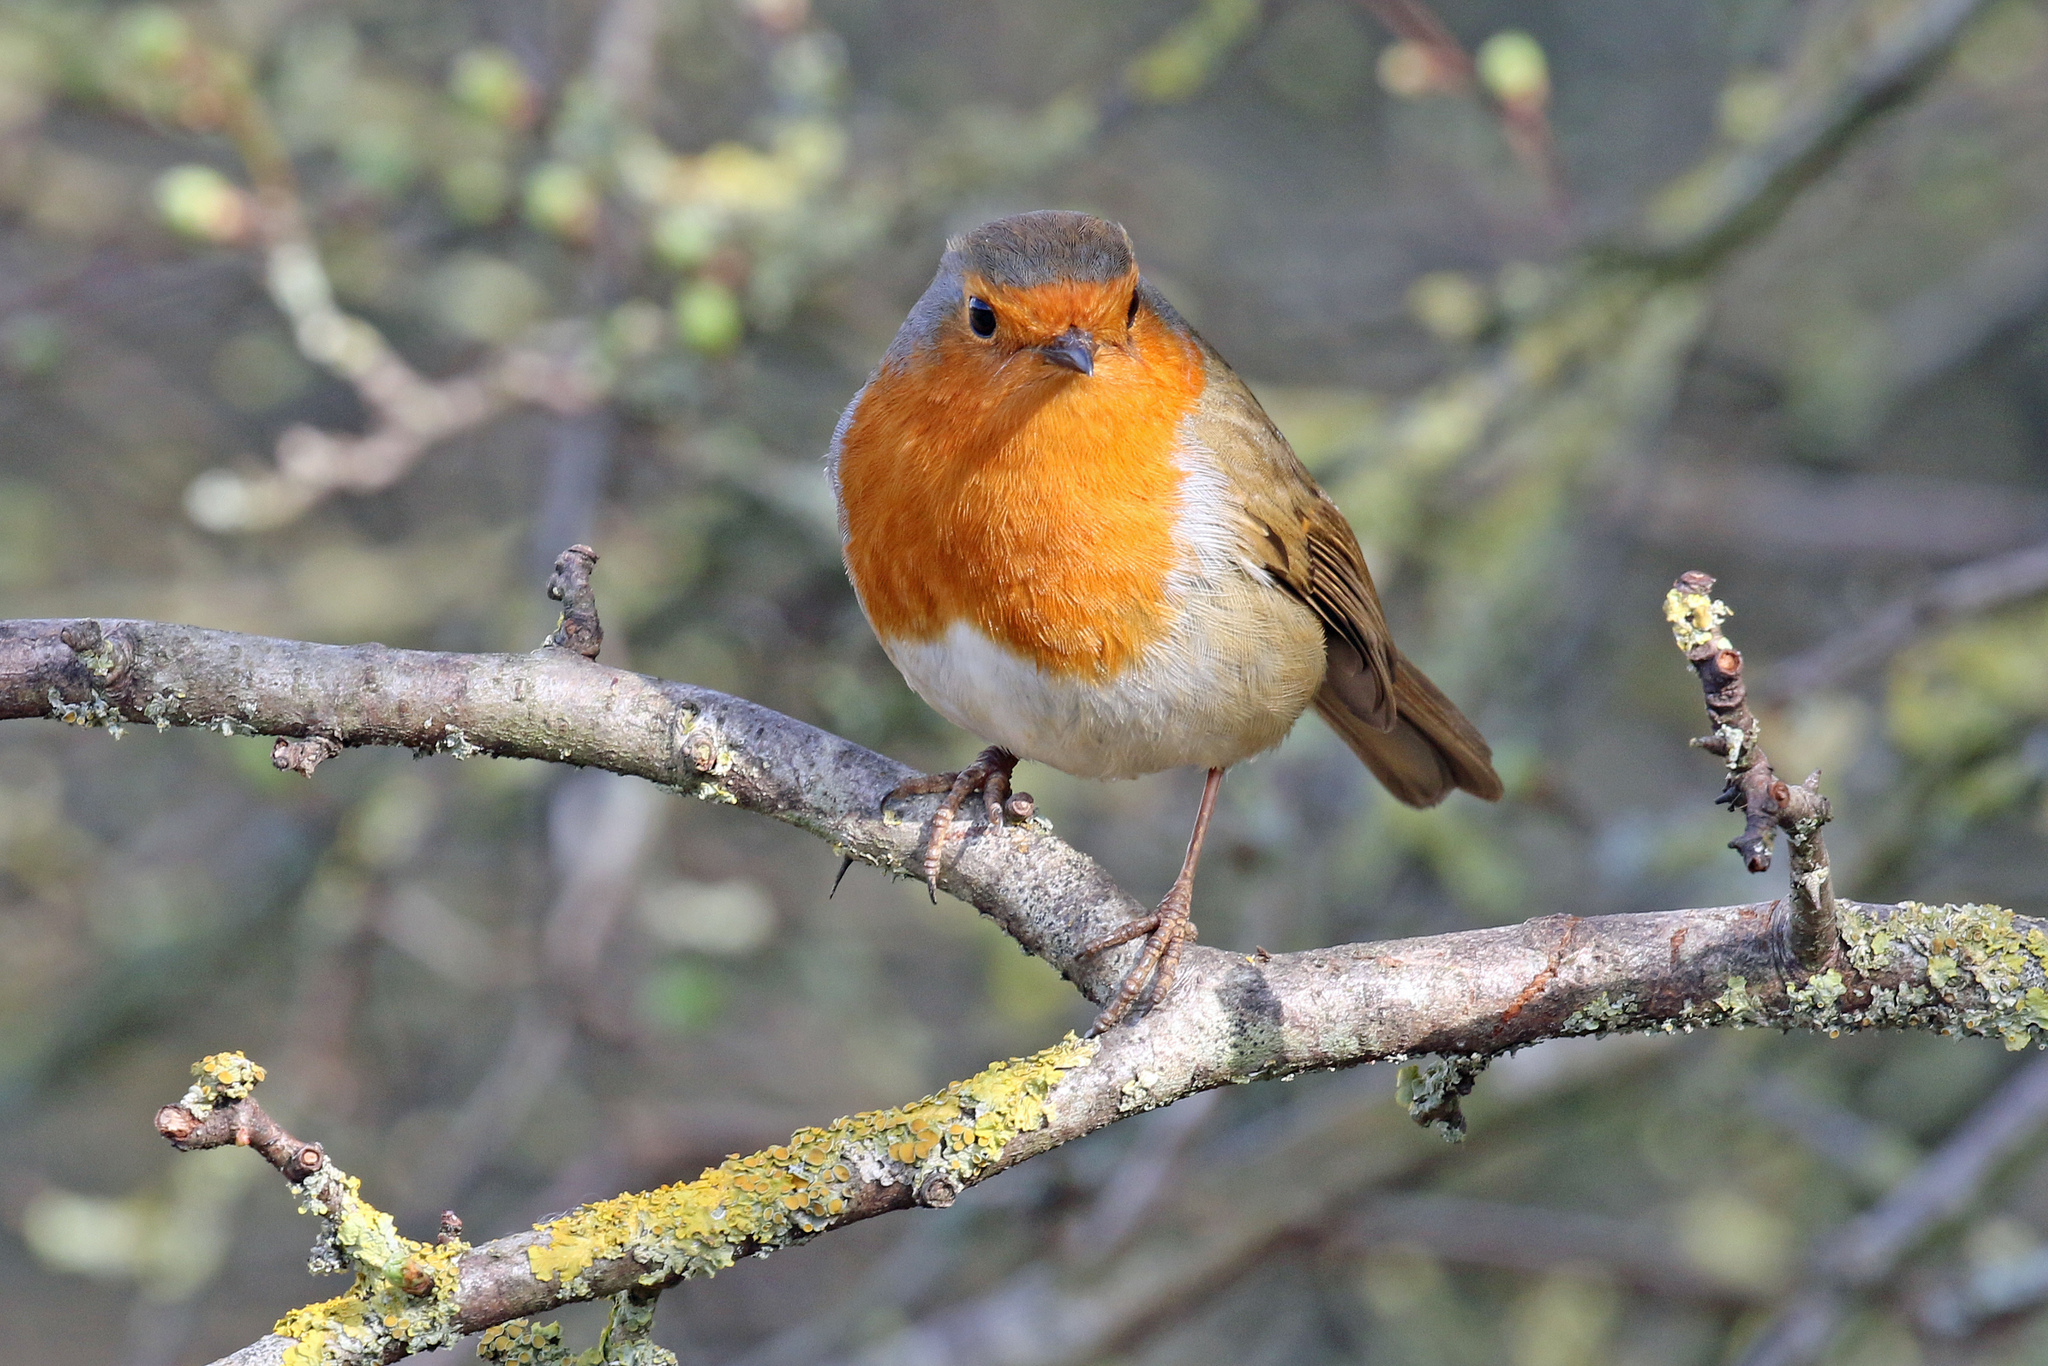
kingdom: Animalia
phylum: Chordata
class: Aves
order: Passeriformes
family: Muscicapidae
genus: Erithacus
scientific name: Erithacus rubecula
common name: European robin
